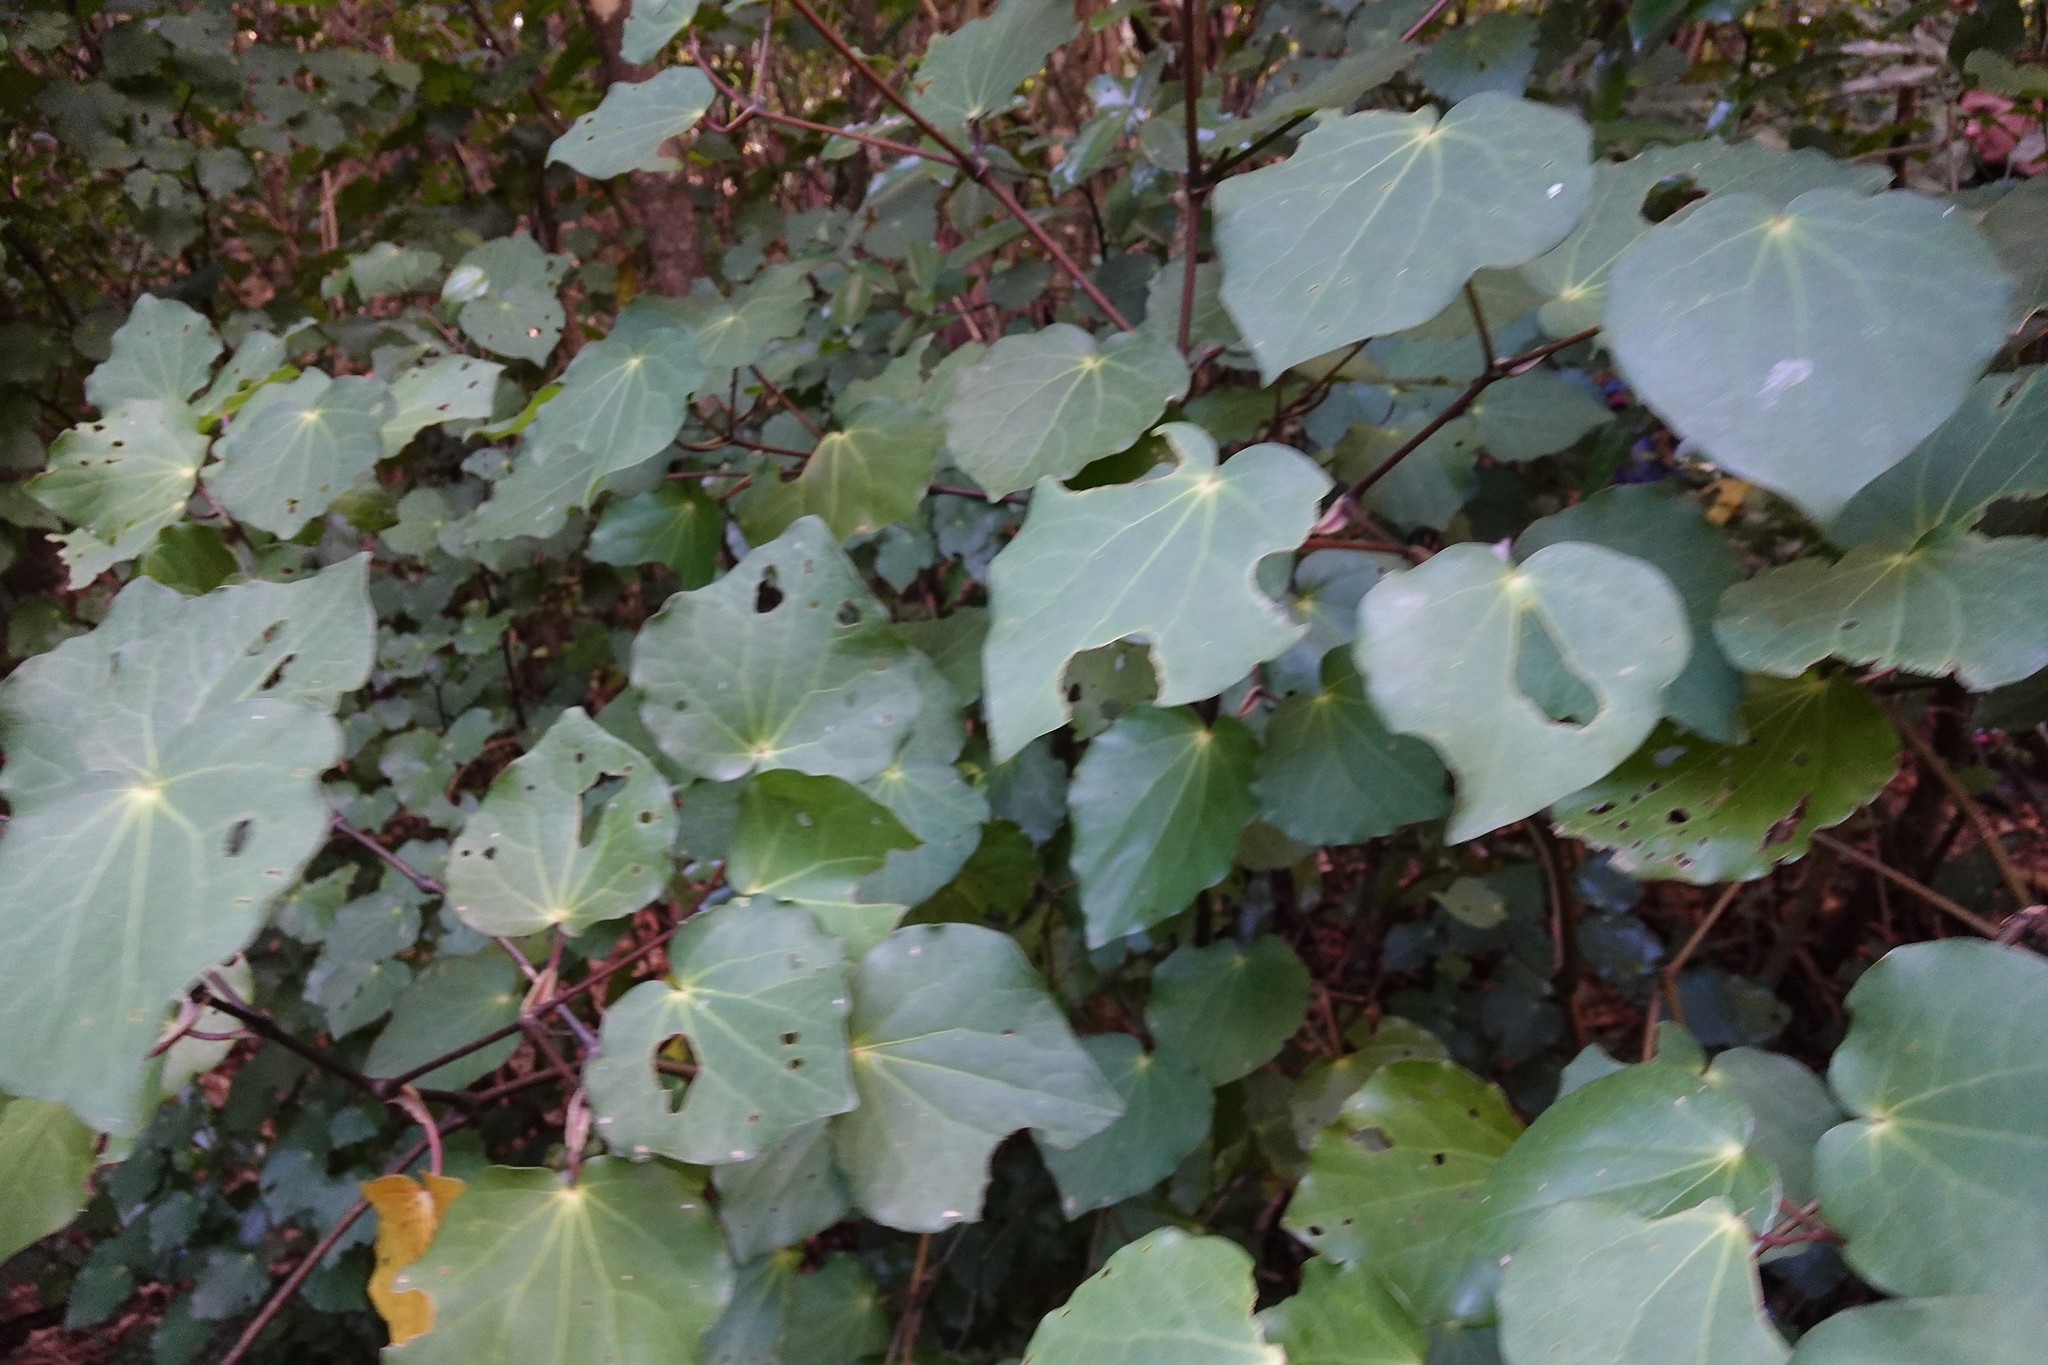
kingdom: Plantae
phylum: Tracheophyta
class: Magnoliopsida
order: Piperales
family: Piperaceae
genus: Macropiper
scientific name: Macropiper excelsum
